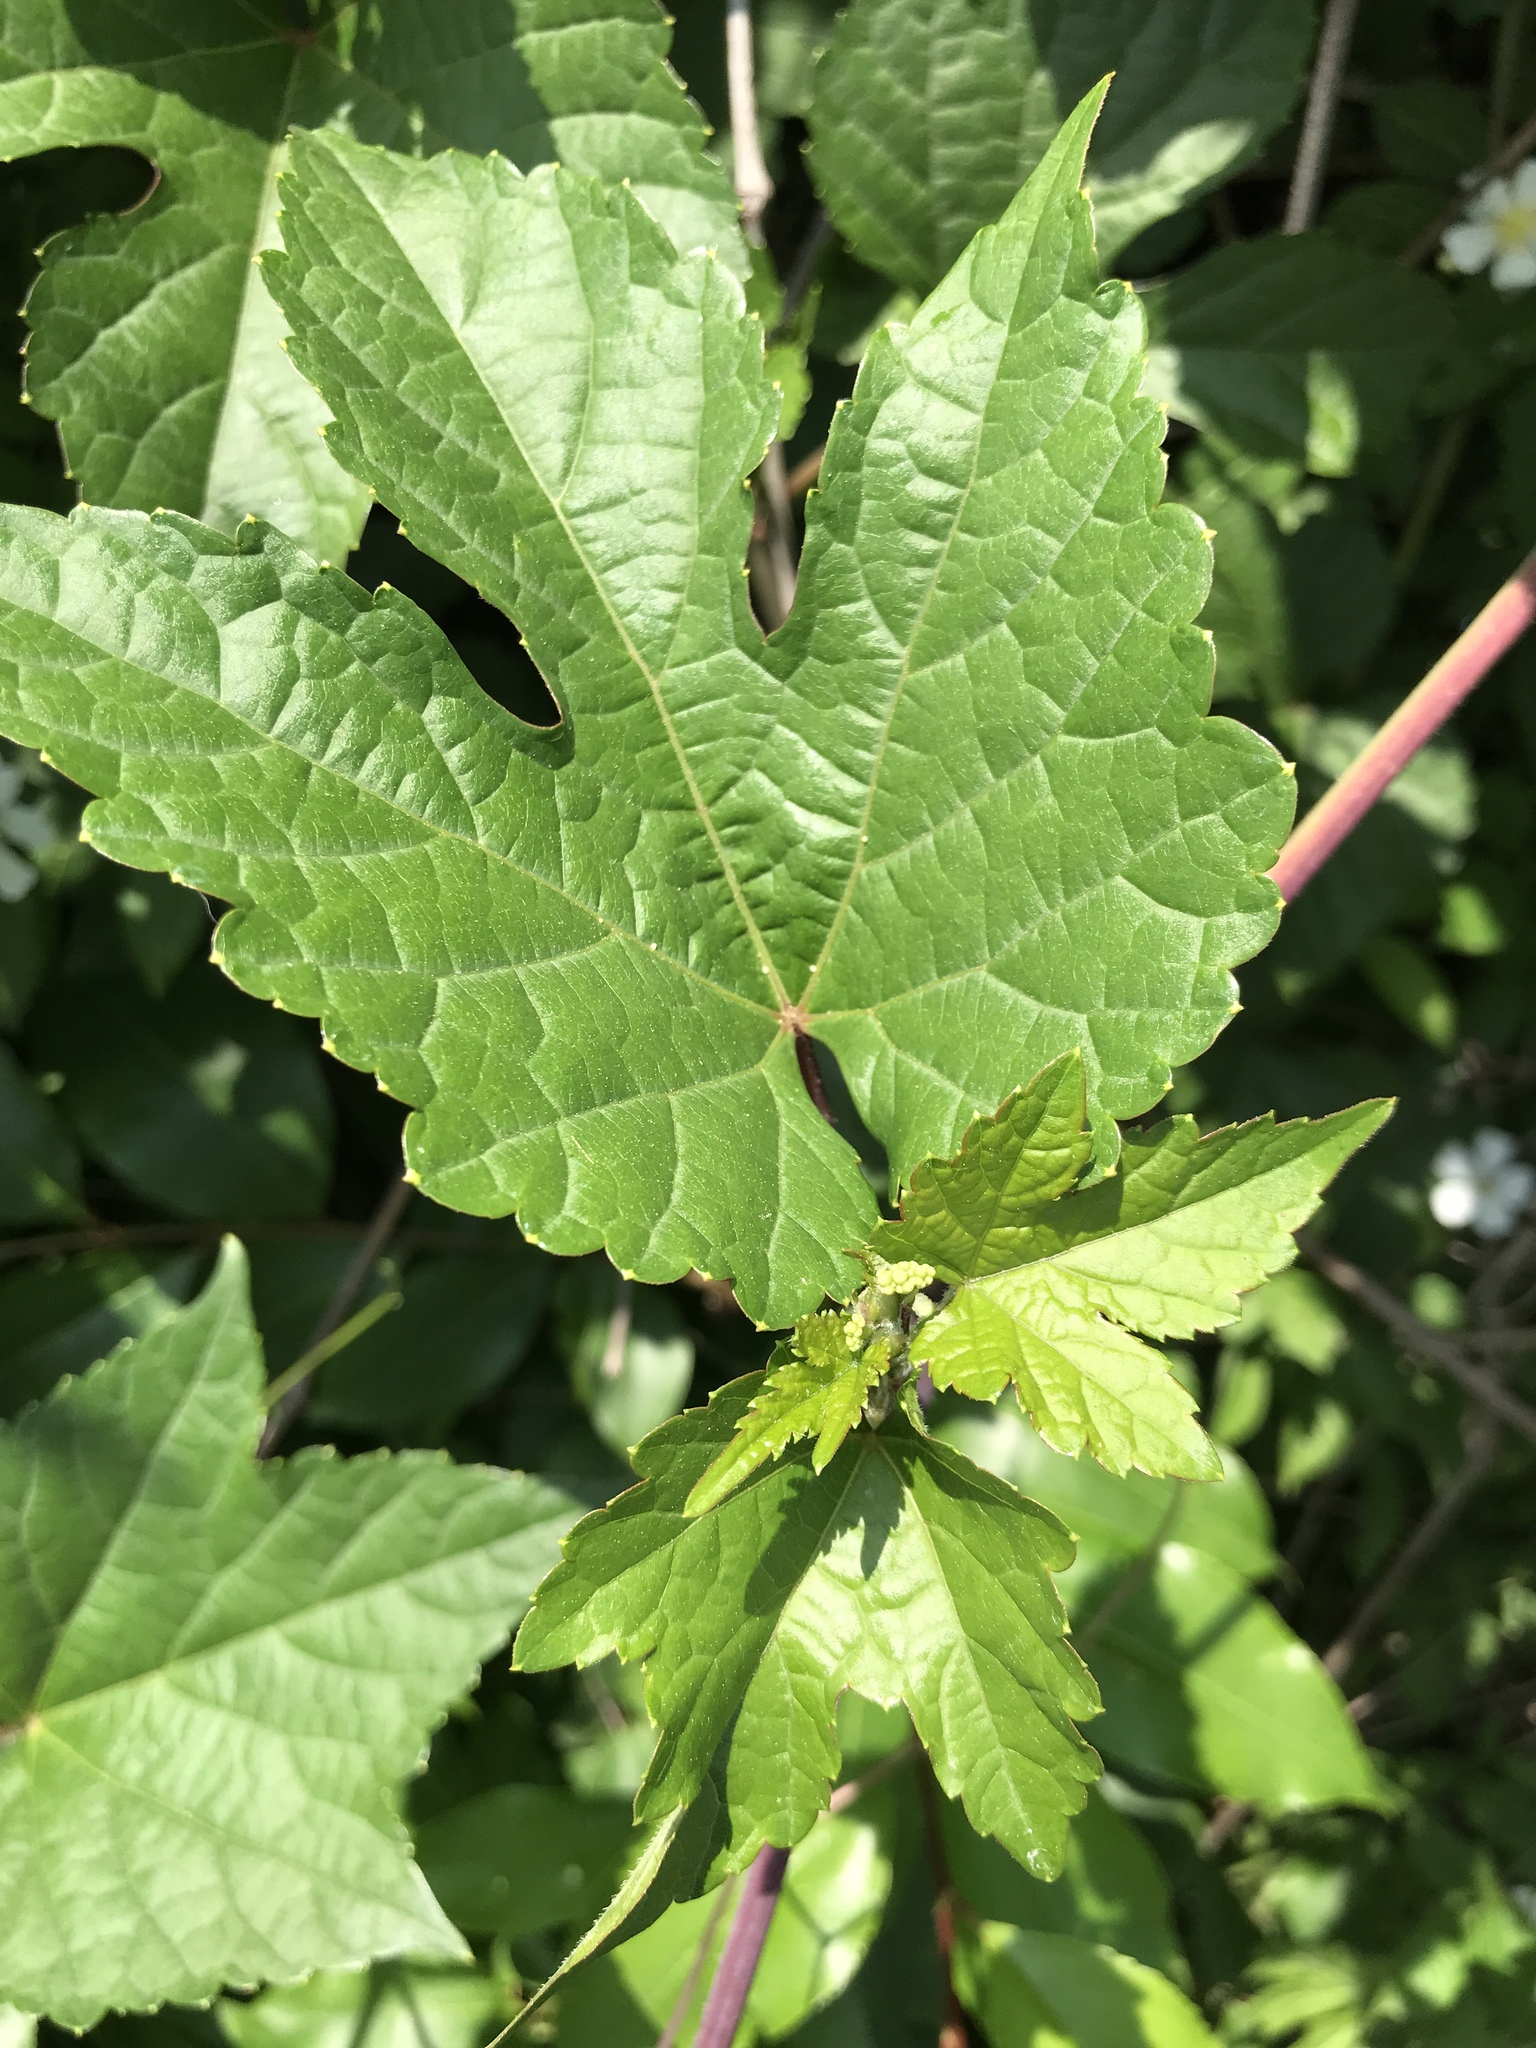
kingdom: Plantae
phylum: Tracheophyta
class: Magnoliopsida
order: Vitales
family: Vitaceae
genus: Ampelopsis
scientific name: Ampelopsis glandulosa
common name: Amur peppervine
